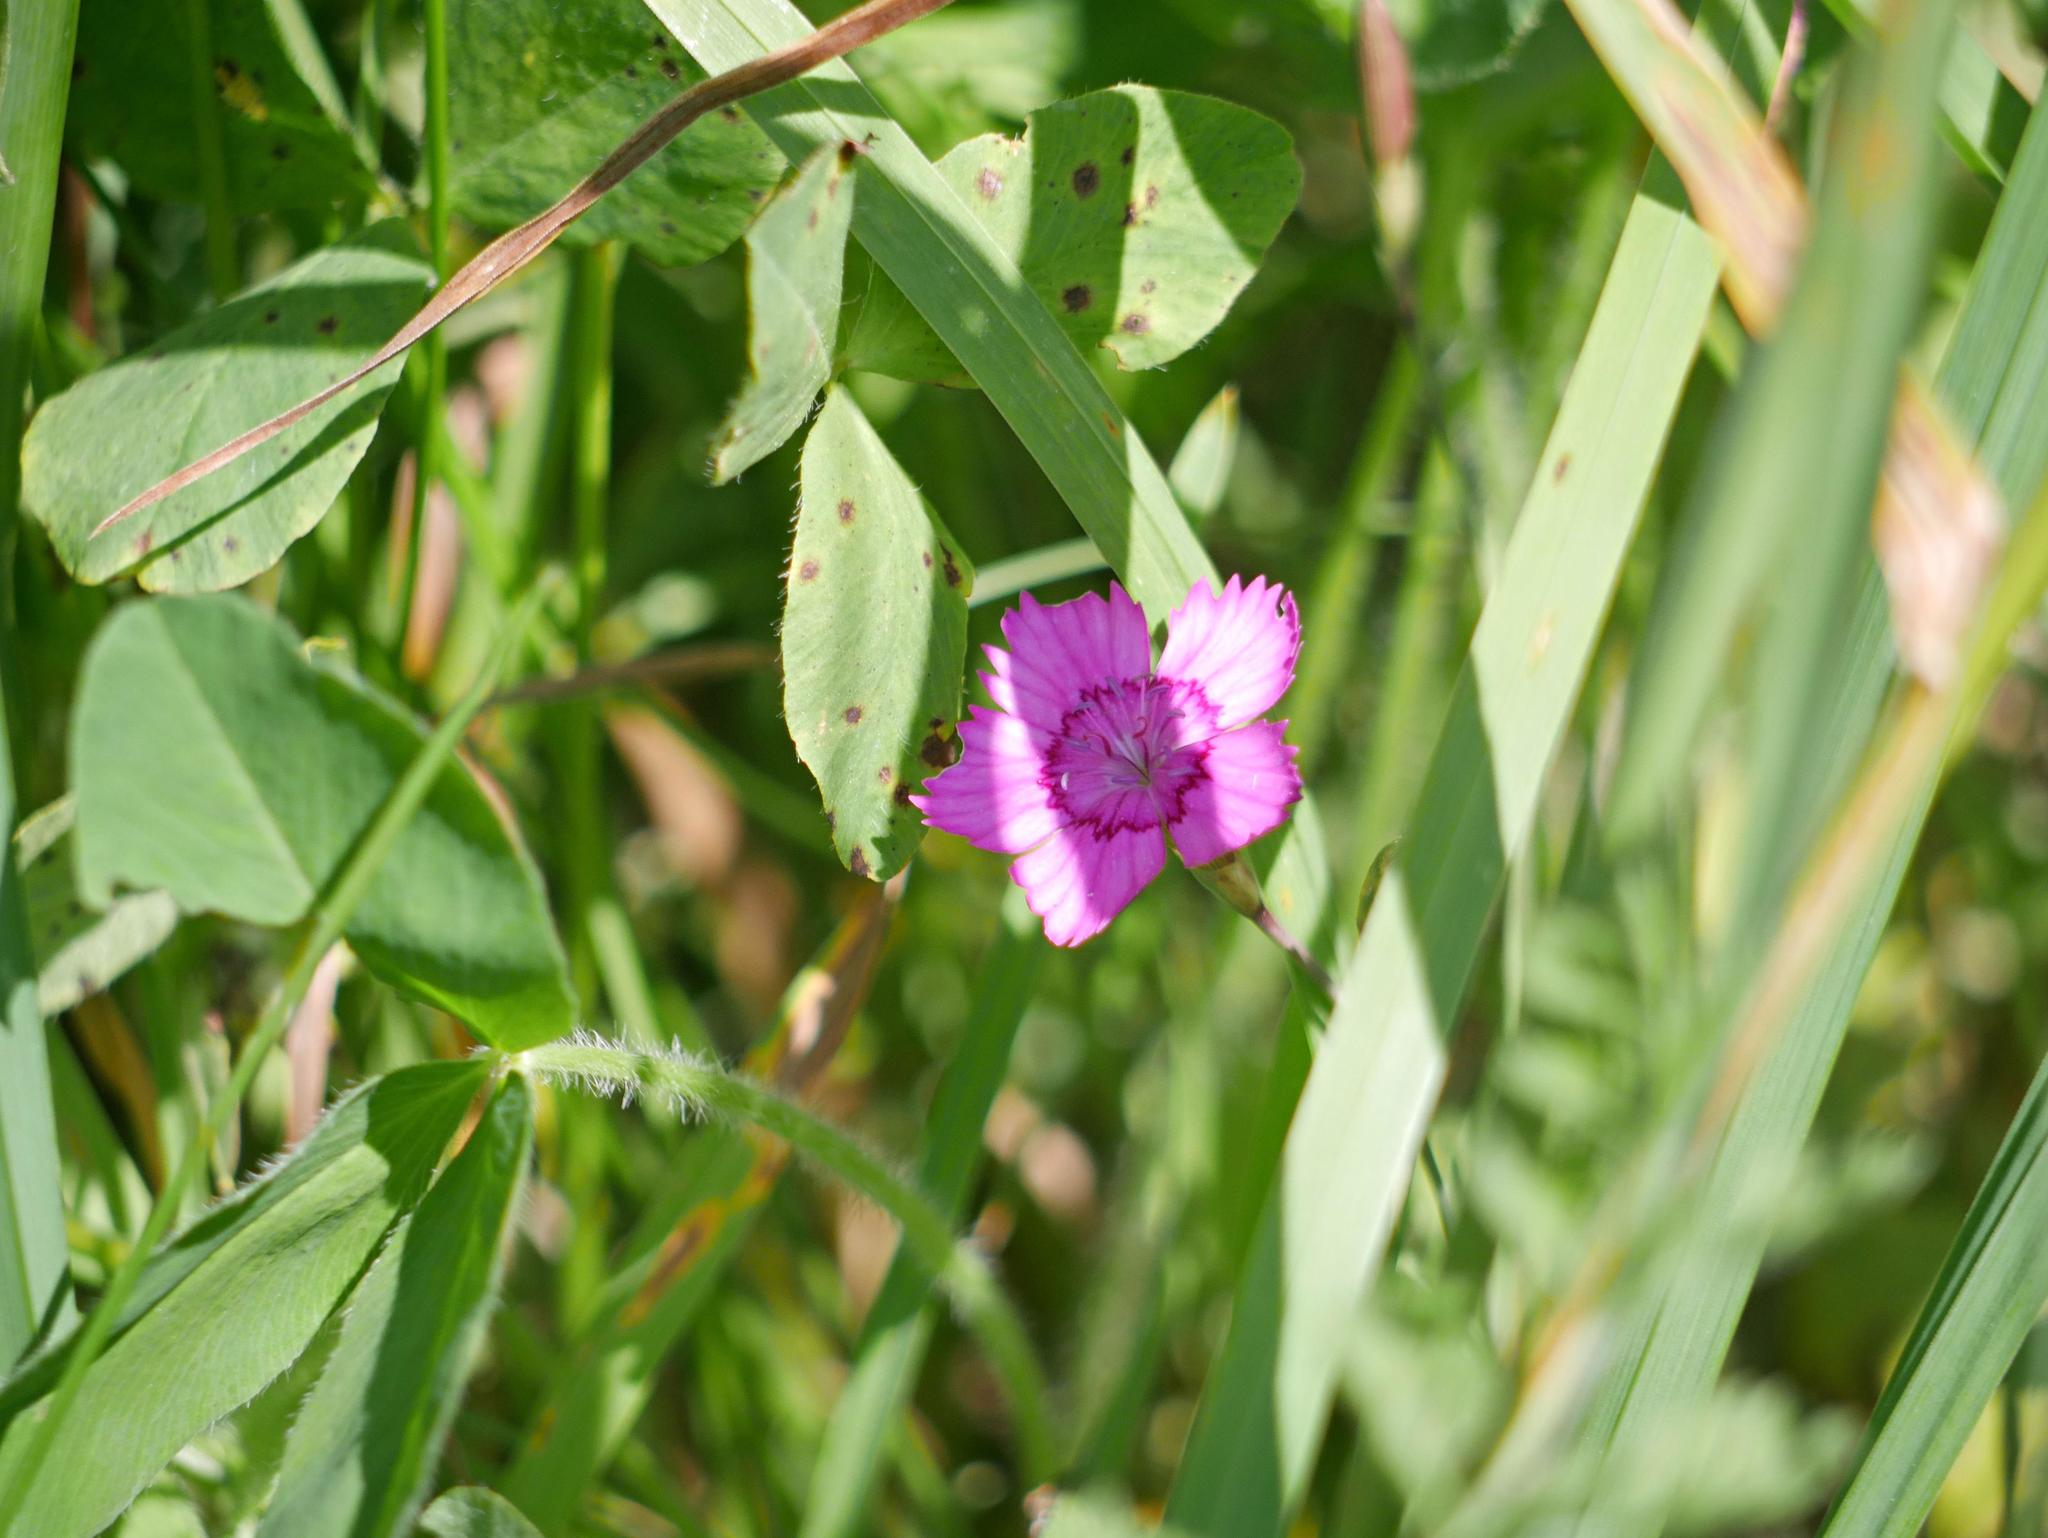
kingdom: Plantae
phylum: Tracheophyta
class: Magnoliopsida
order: Caryophyllales
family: Caryophyllaceae
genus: Dianthus
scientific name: Dianthus deltoides
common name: Maiden pink
